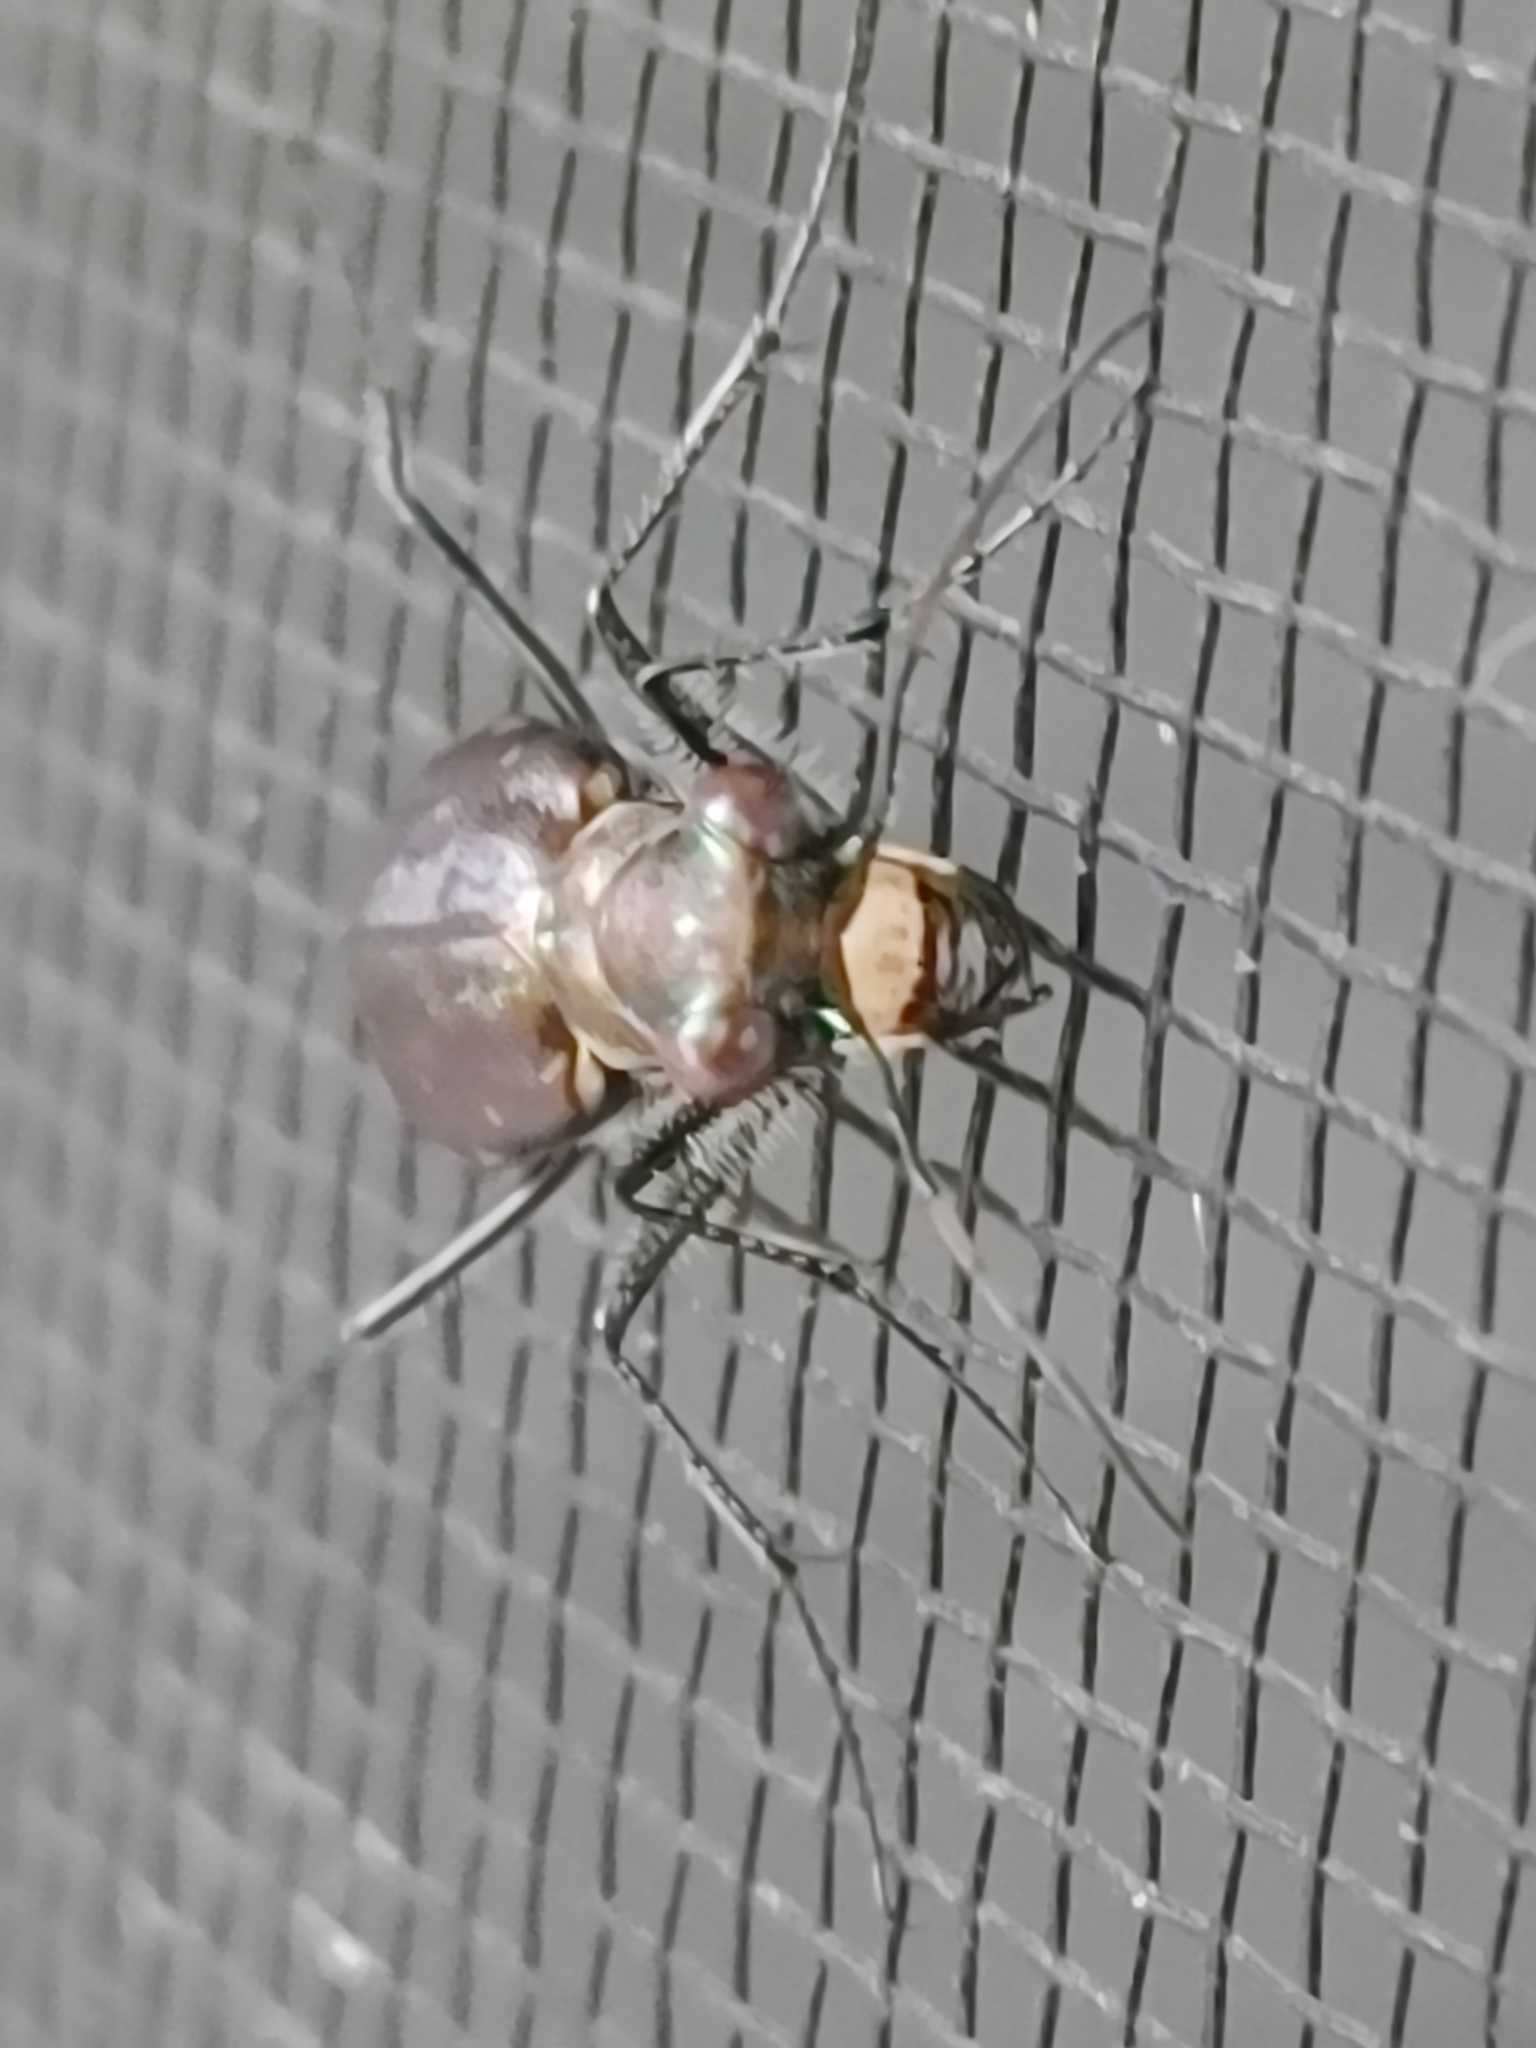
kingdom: Animalia
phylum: Arthropoda
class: Insecta
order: Coleoptera
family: Carabidae
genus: Cicindela
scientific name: Cicindela punctulata
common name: Punctured tiger beetle
